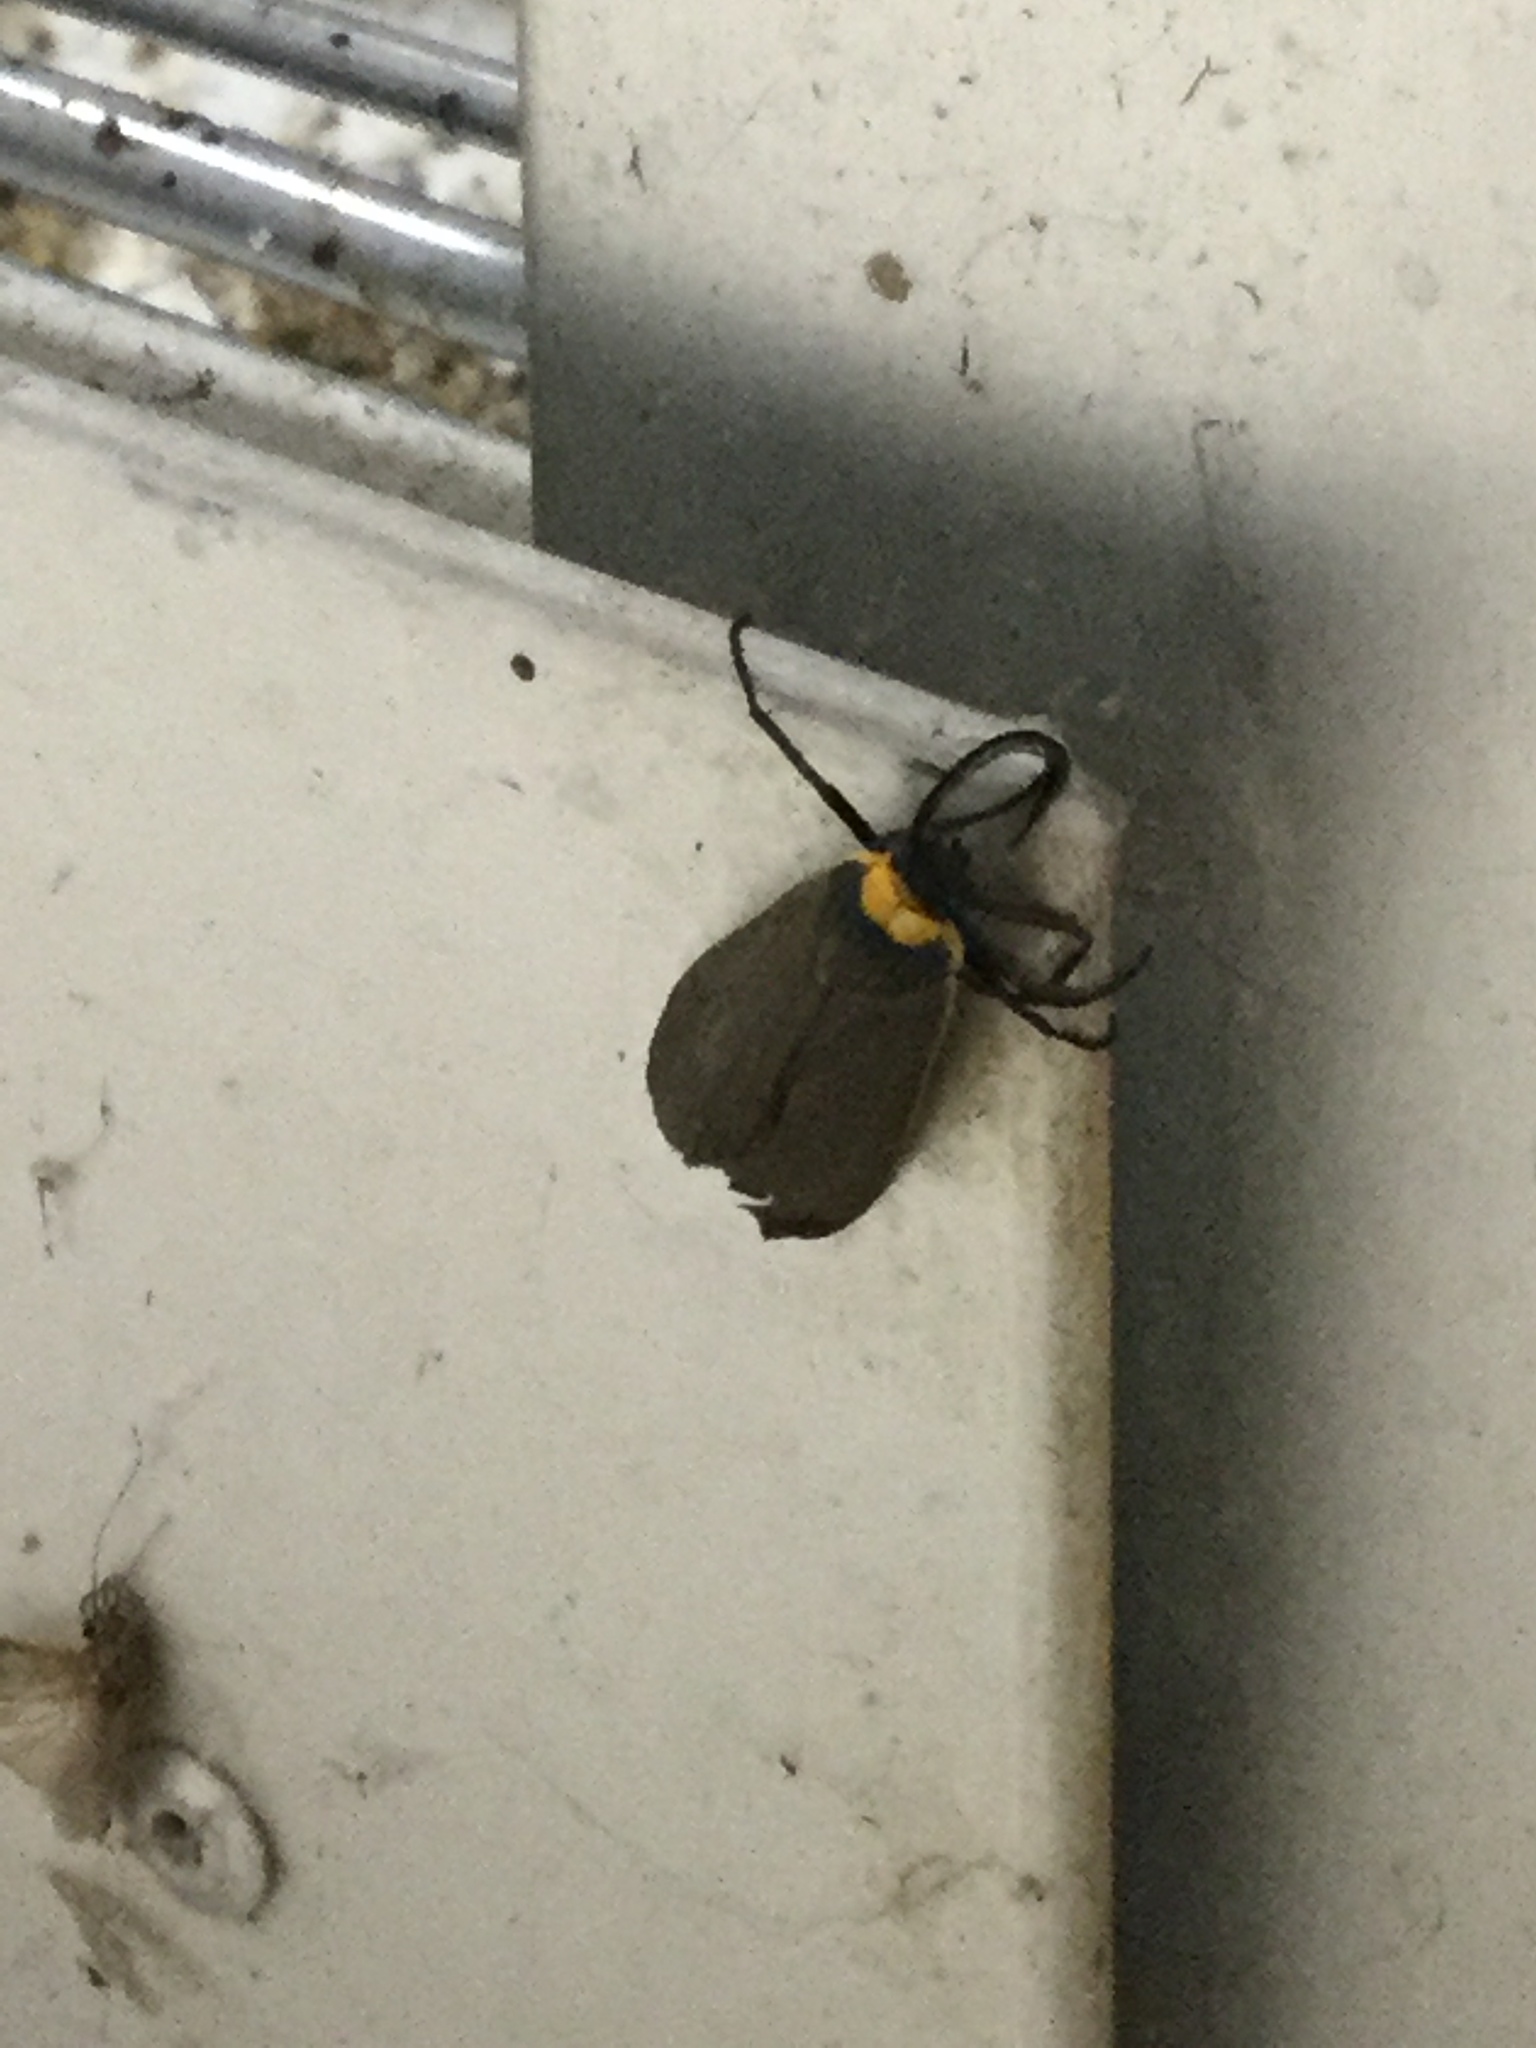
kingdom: Animalia
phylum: Arthropoda
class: Insecta
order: Lepidoptera
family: Erebidae
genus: Cisseps
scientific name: Cisseps fulvicollis
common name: Yellow-collared scape moth
